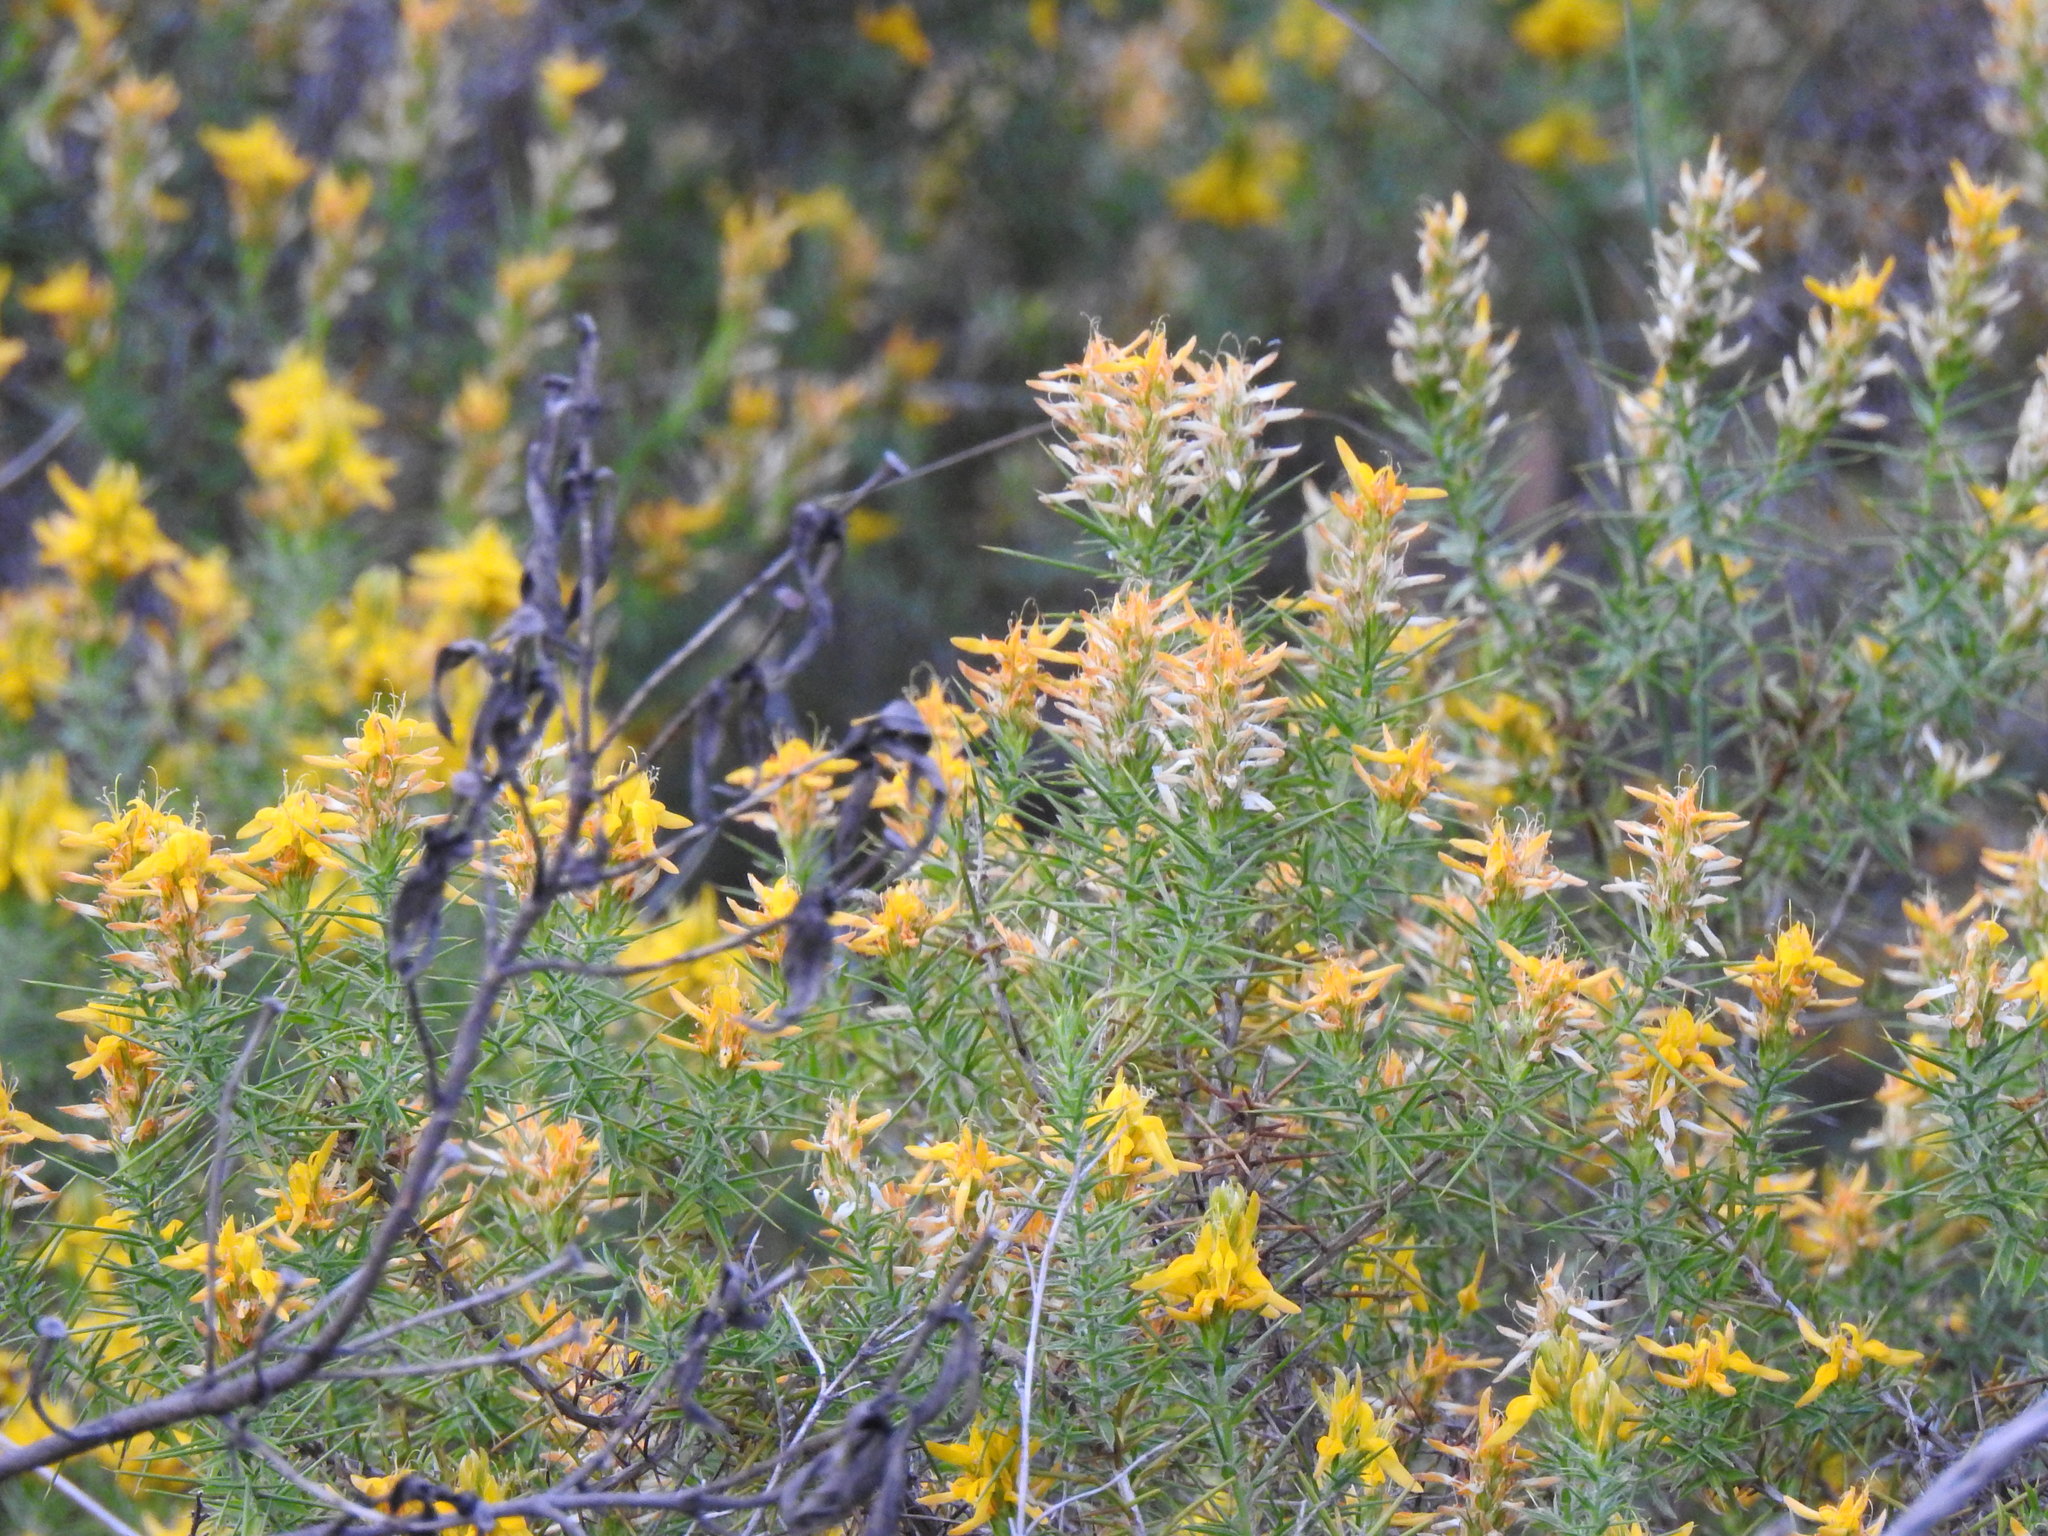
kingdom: Plantae
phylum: Tracheophyta
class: Magnoliopsida
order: Fabales
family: Fabaceae
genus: Genista
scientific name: Genista hirsuta
